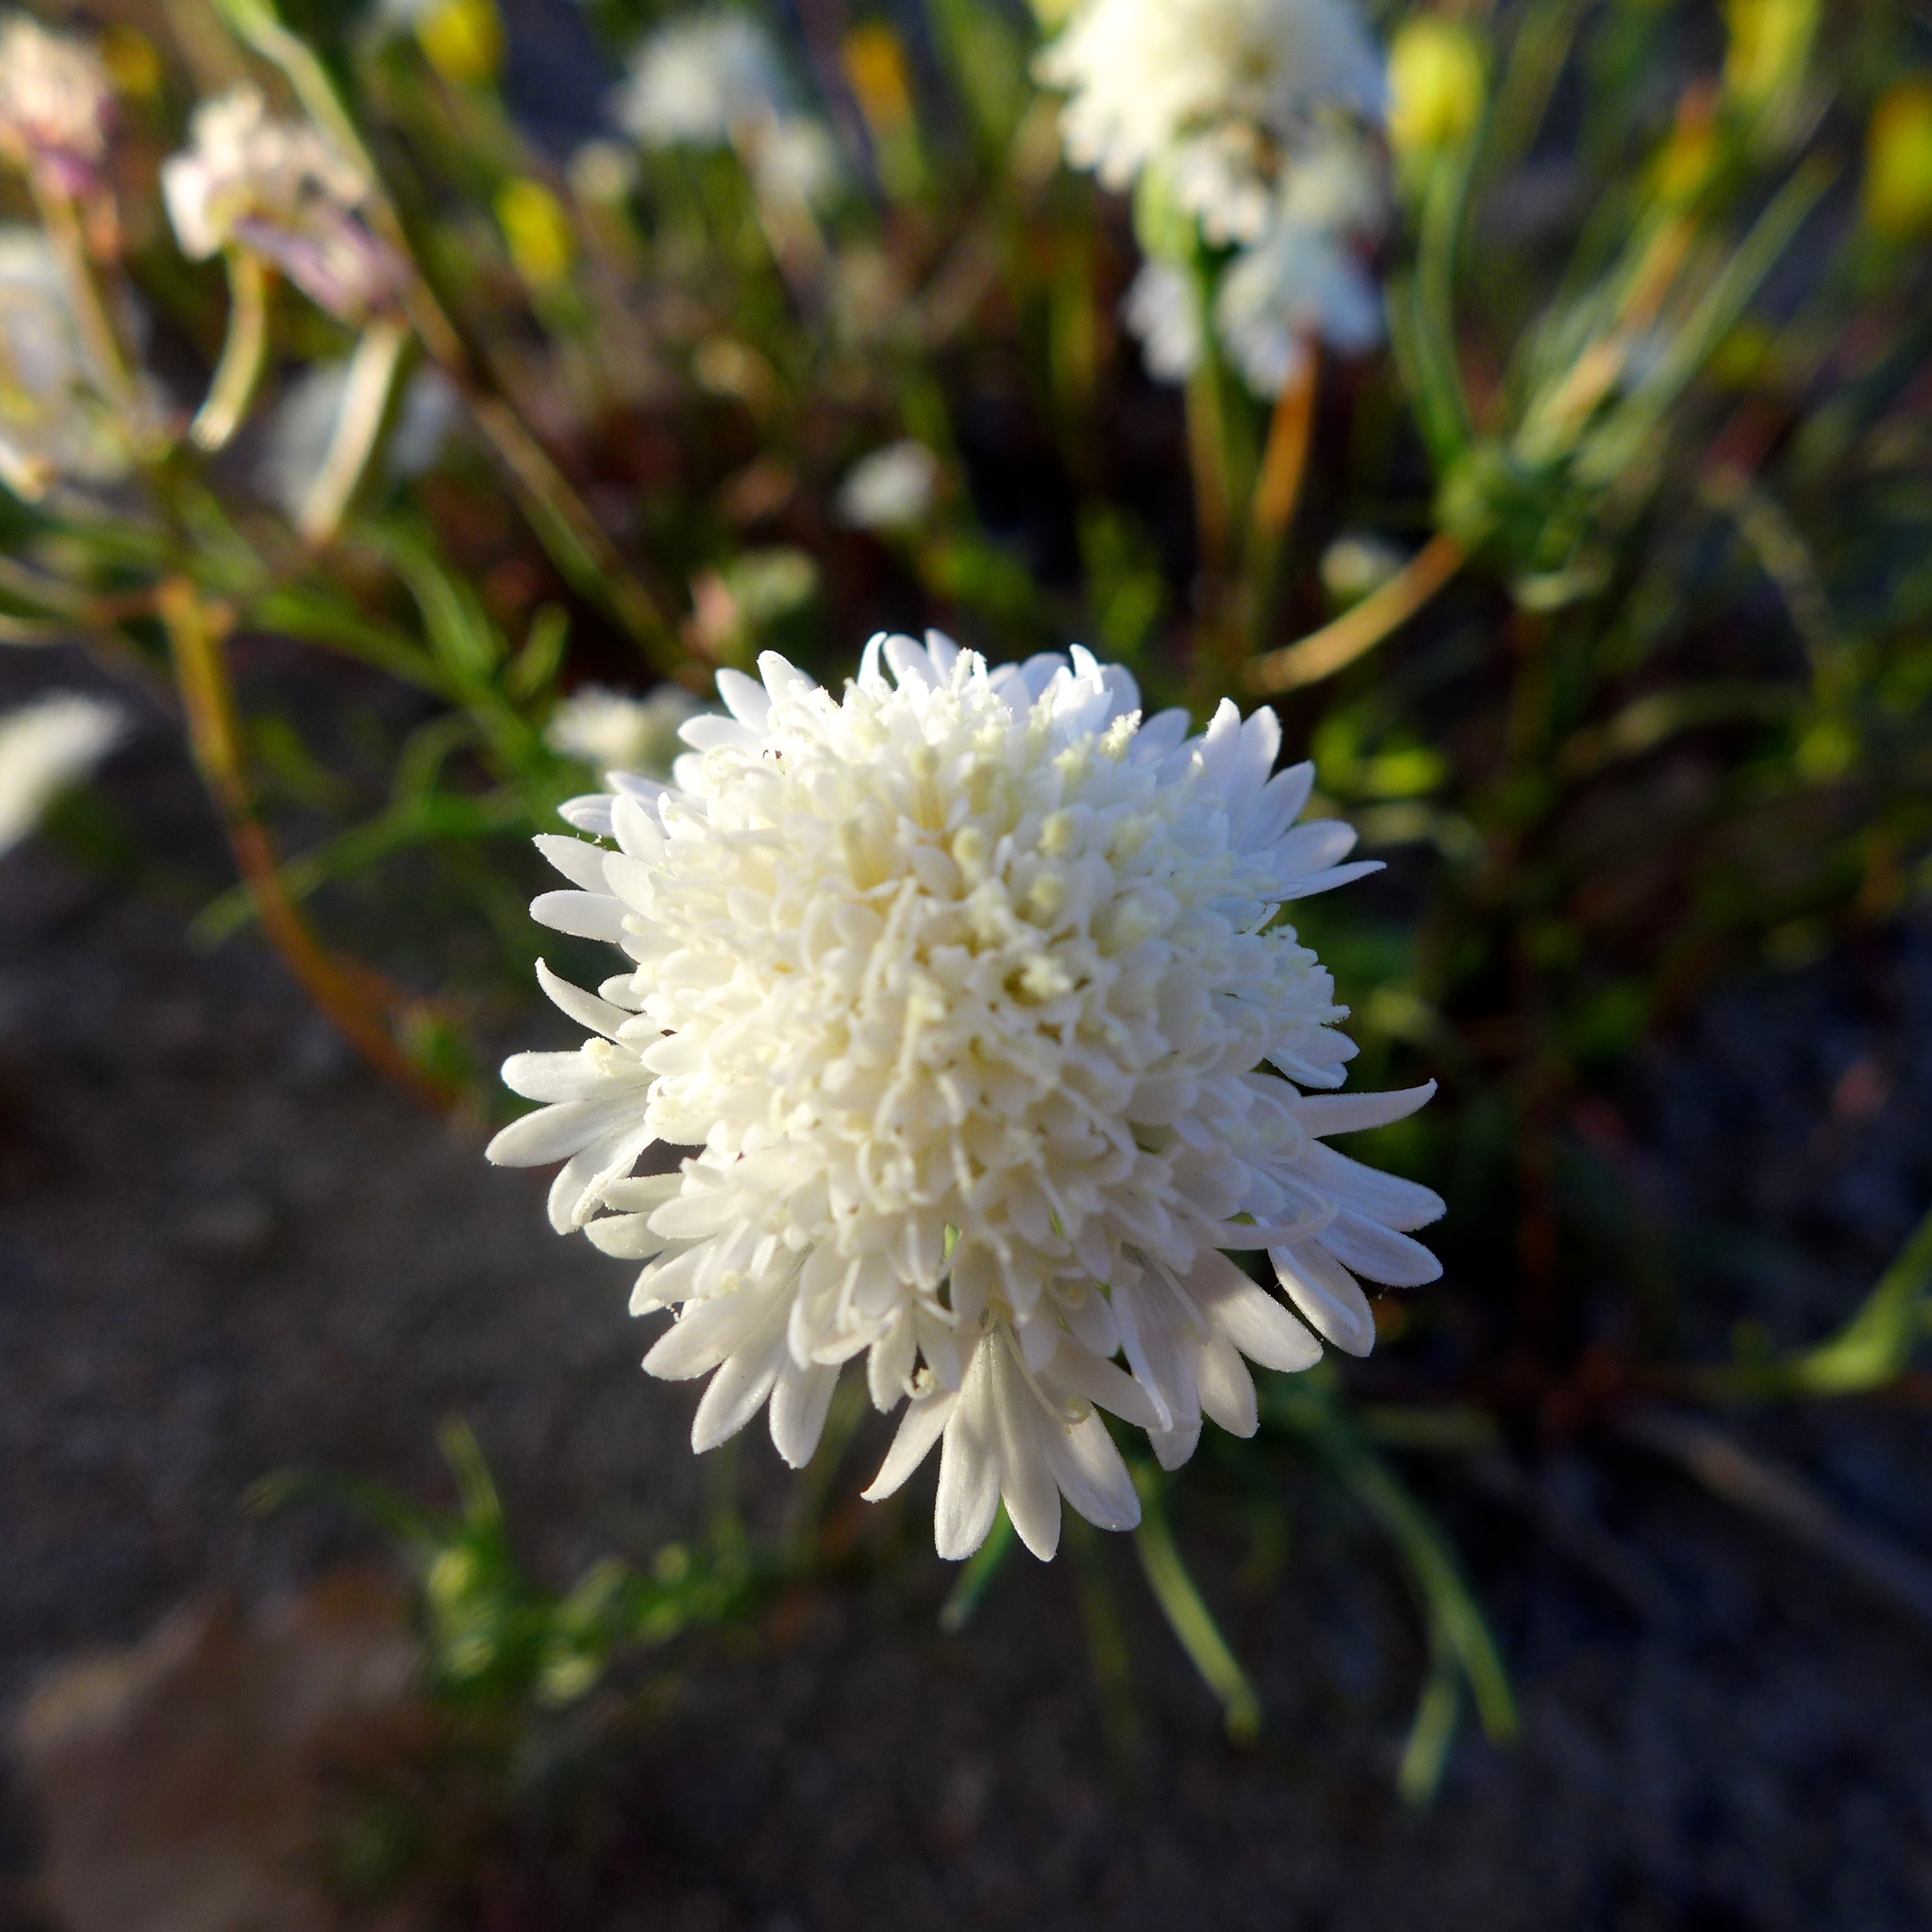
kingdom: Plantae
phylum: Tracheophyta
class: Magnoliopsida
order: Asterales
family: Asteraceae
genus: Chaenactis
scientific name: Chaenactis fremontii
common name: Fremont pincushion
